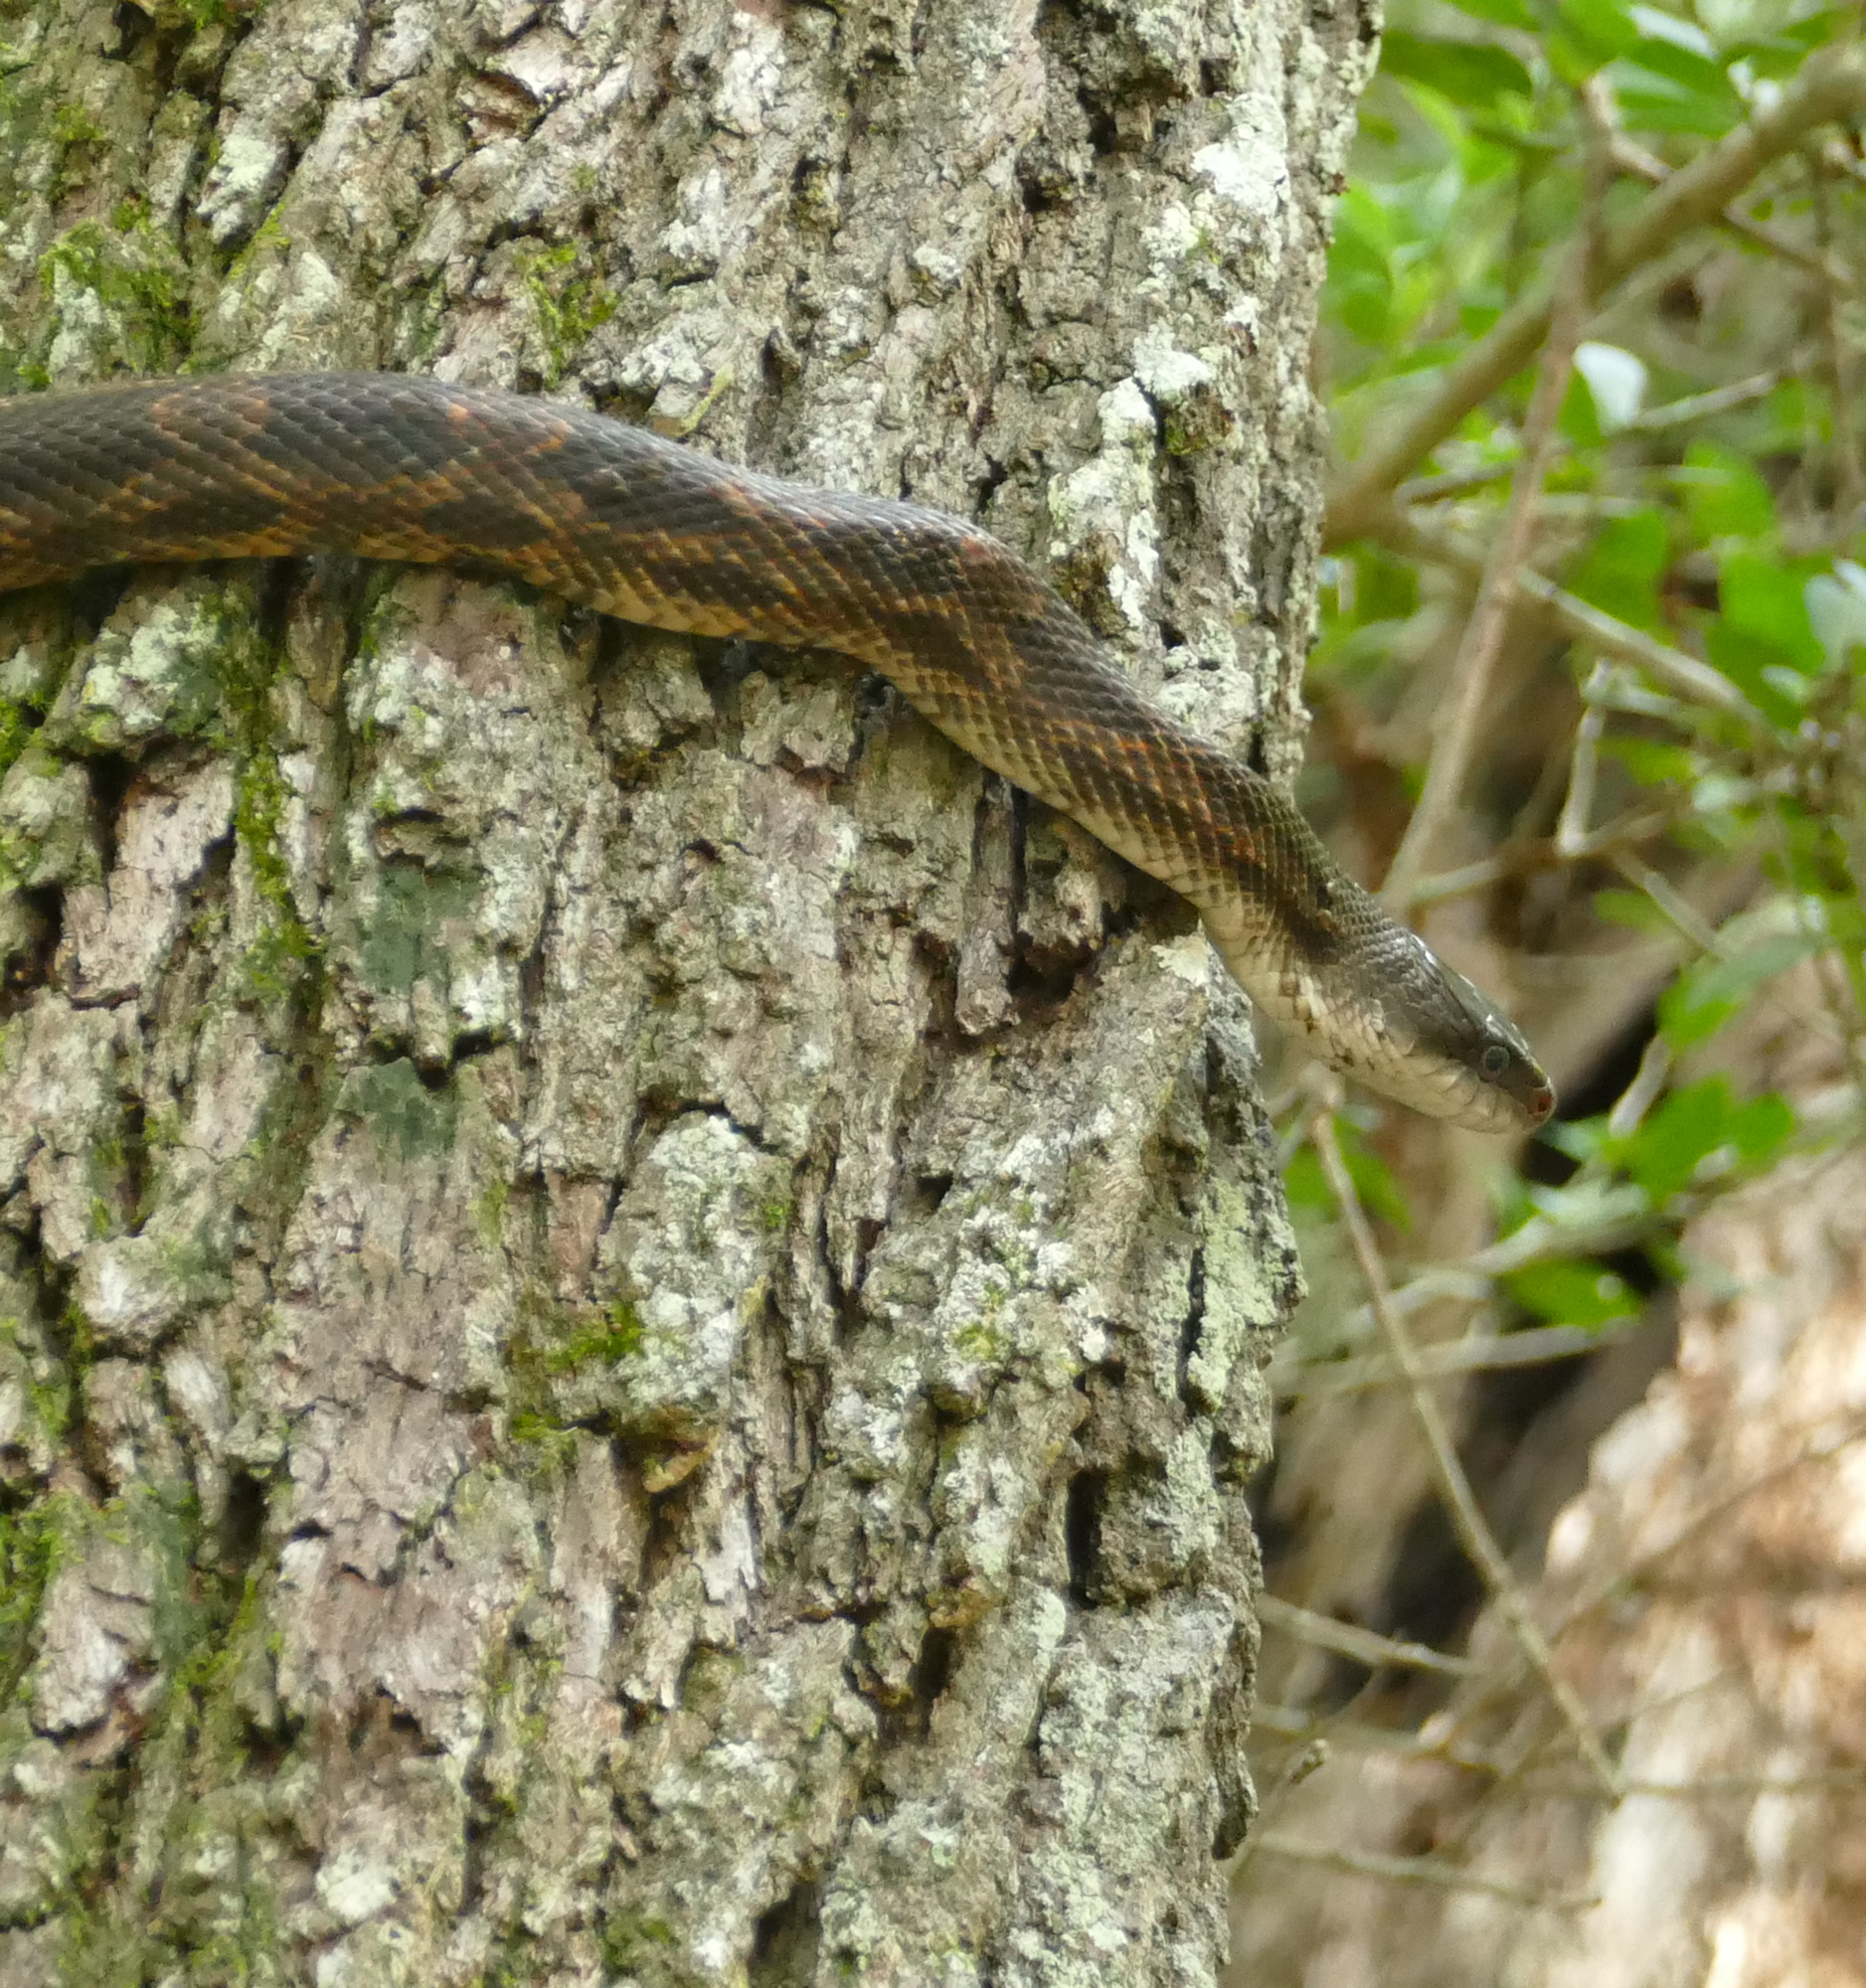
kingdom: Animalia
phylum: Chordata
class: Squamata
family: Colubridae
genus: Pantherophis
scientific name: Pantherophis obsoletus
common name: Black rat snake
